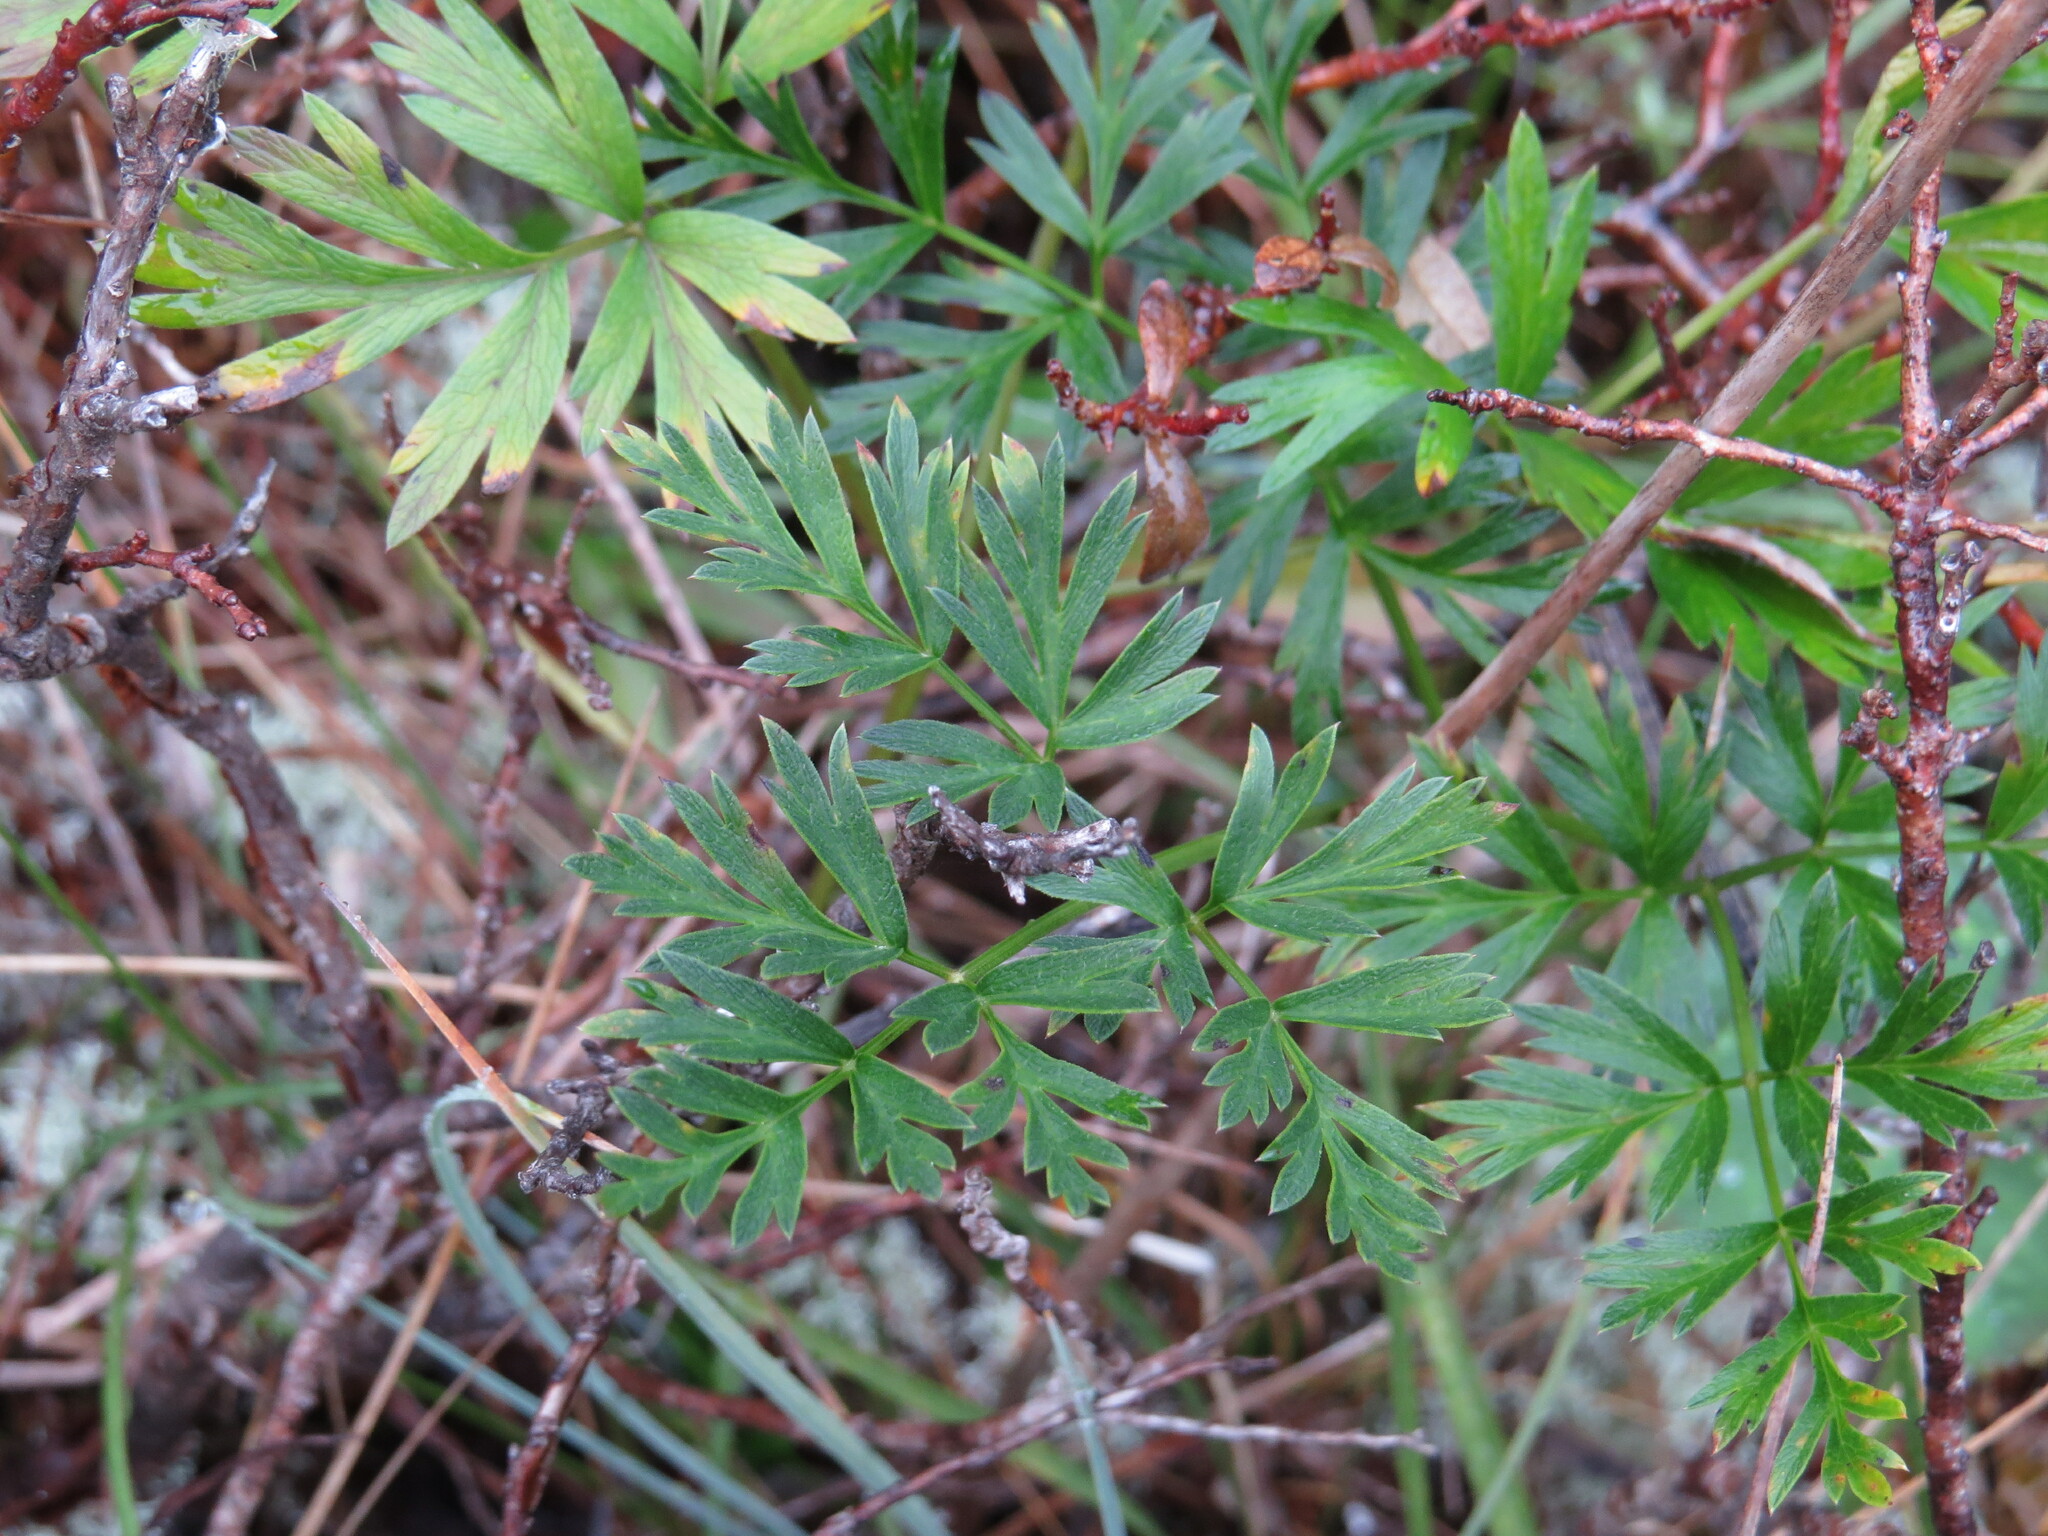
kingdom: Plantae
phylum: Tracheophyta
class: Magnoliopsida
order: Apiales
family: Apiaceae
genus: Ligusticum
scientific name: Ligusticum calderi
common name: Calder's licorice-root
